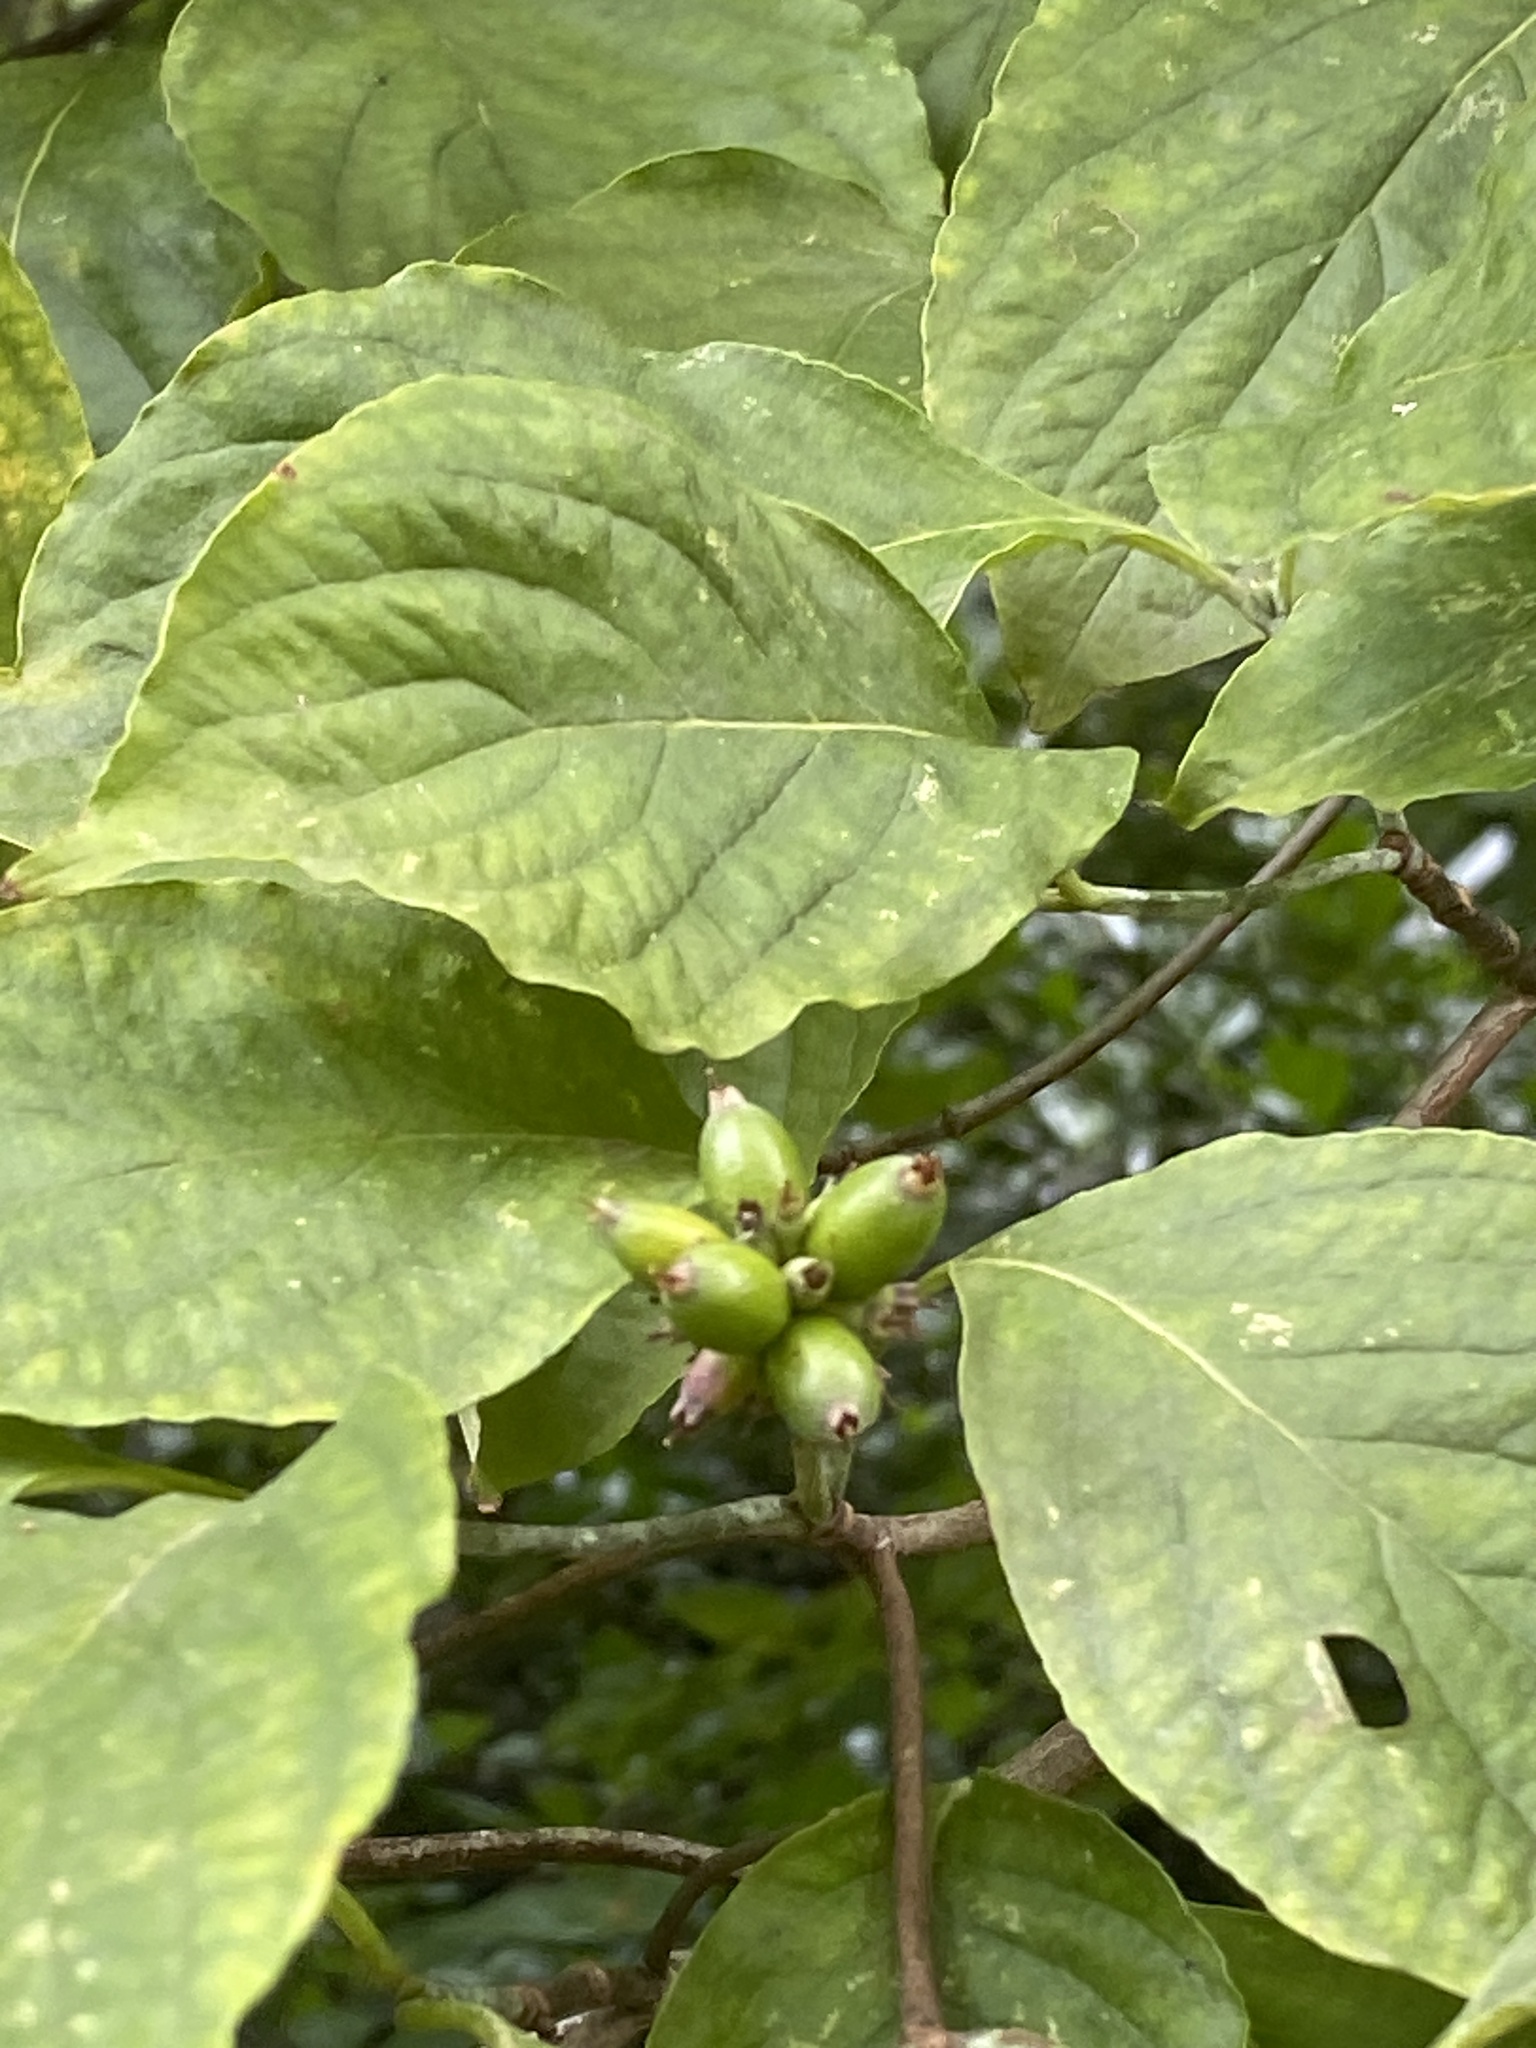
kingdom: Plantae
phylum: Tracheophyta
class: Magnoliopsida
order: Cornales
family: Cornaceae
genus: Cornus
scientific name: Cornus florida
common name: Flowering dogwood
